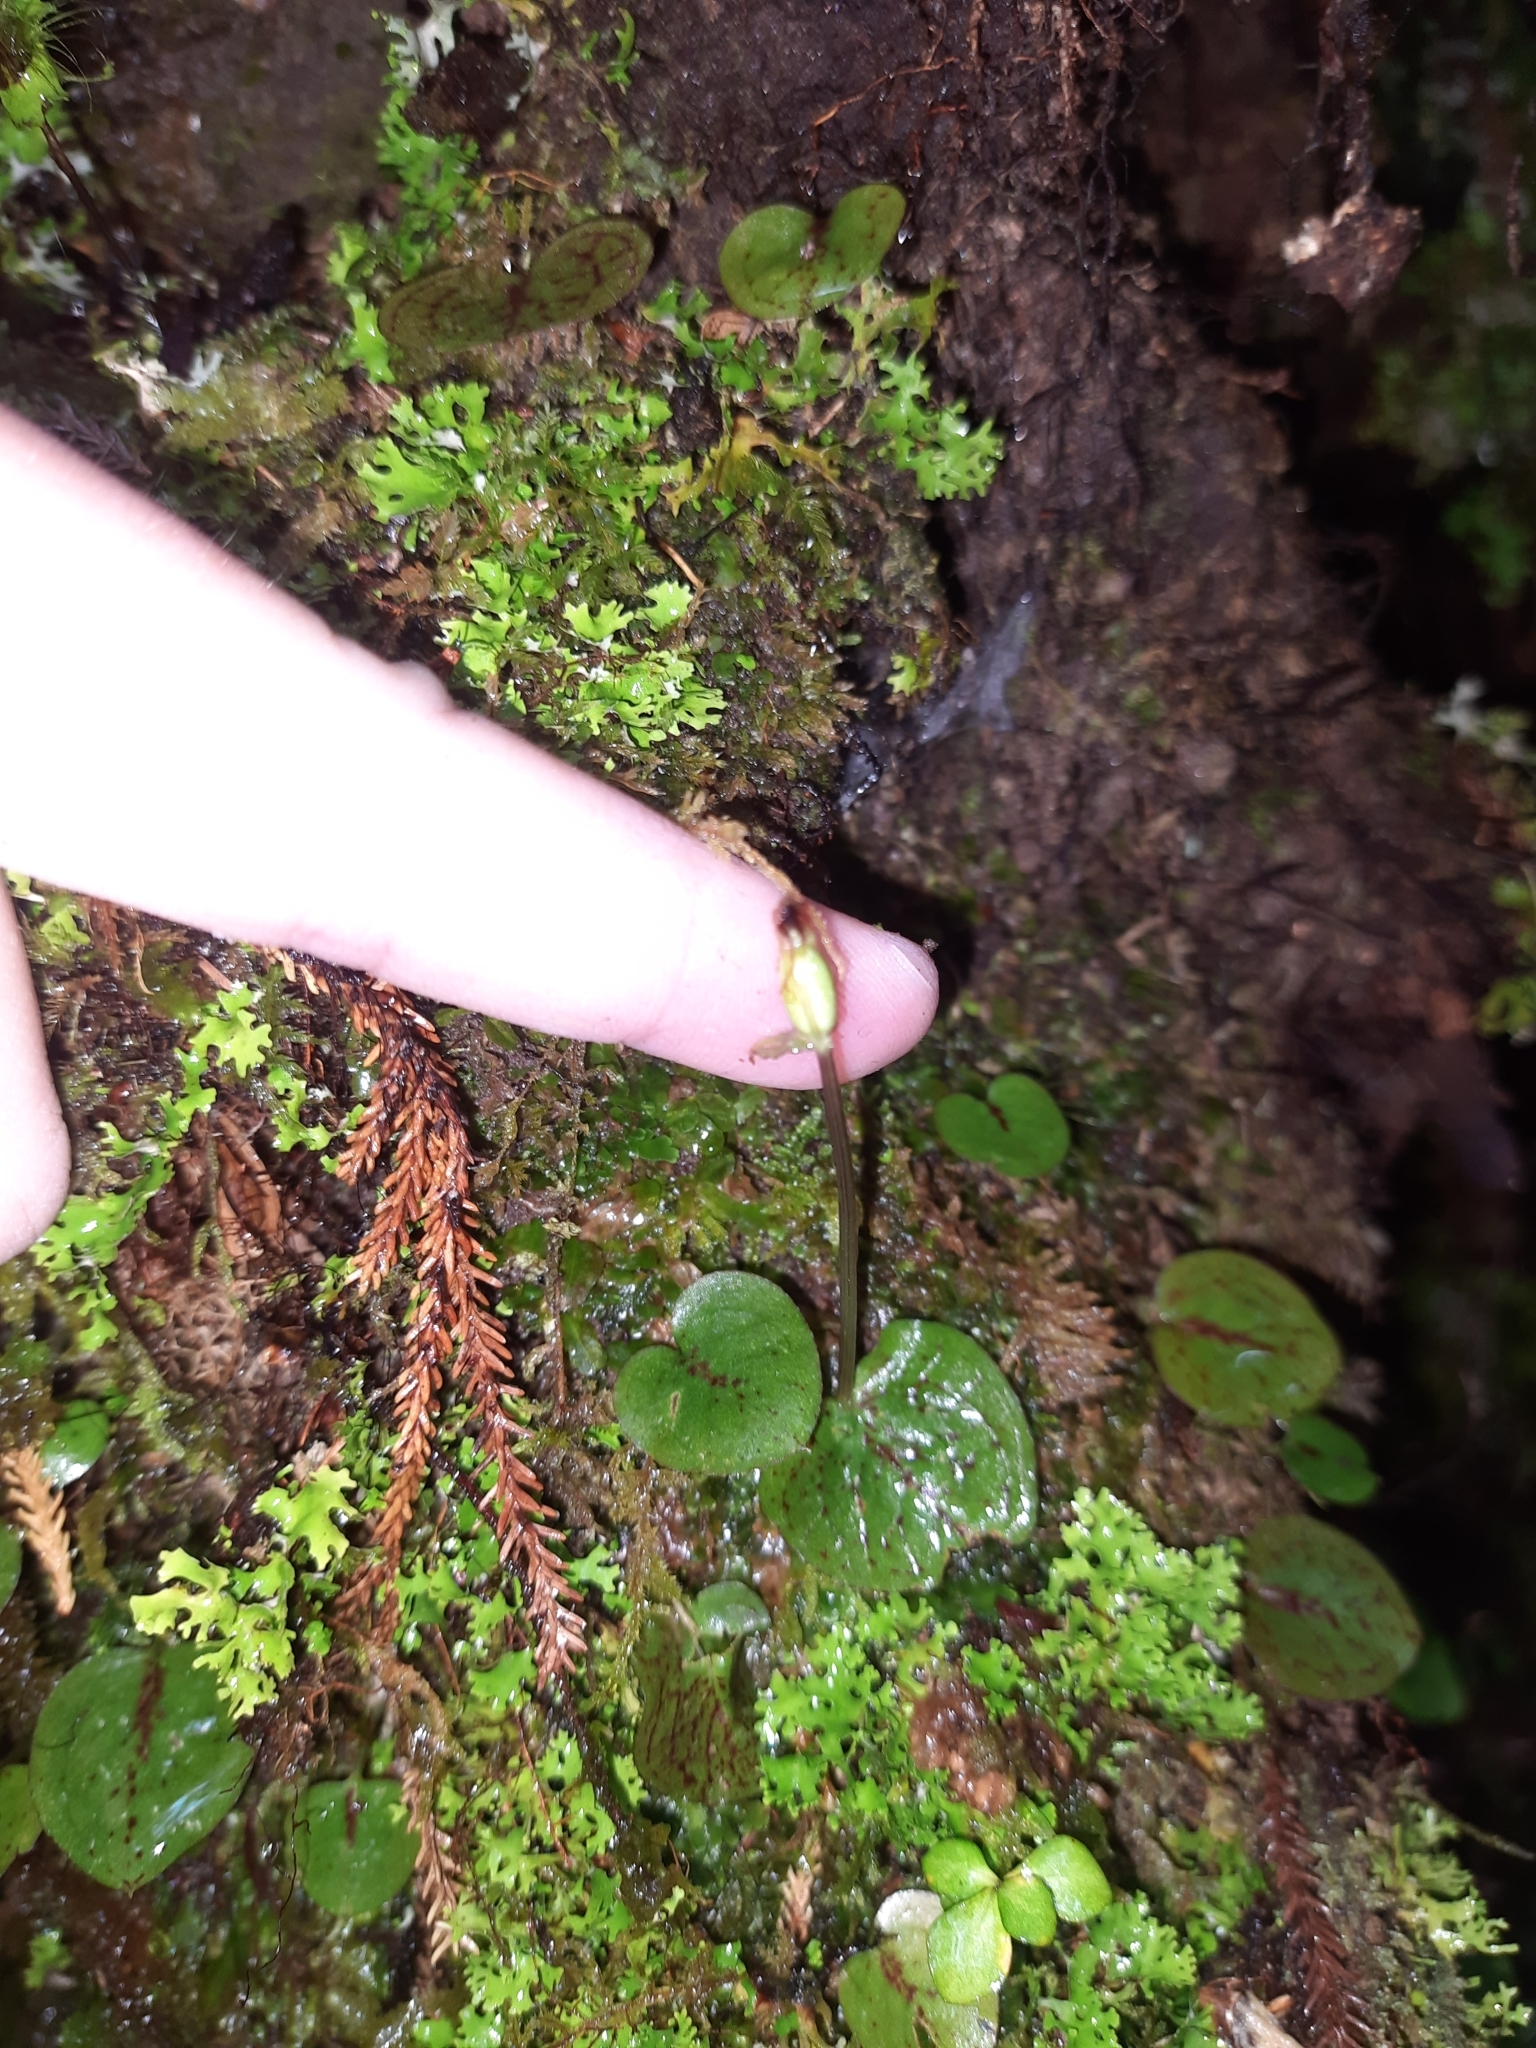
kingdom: Plantae
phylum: Tracheophyta
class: Liliopsida
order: Asparagales
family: Orchidaceae
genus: Corybas
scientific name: Corybas oblongus
